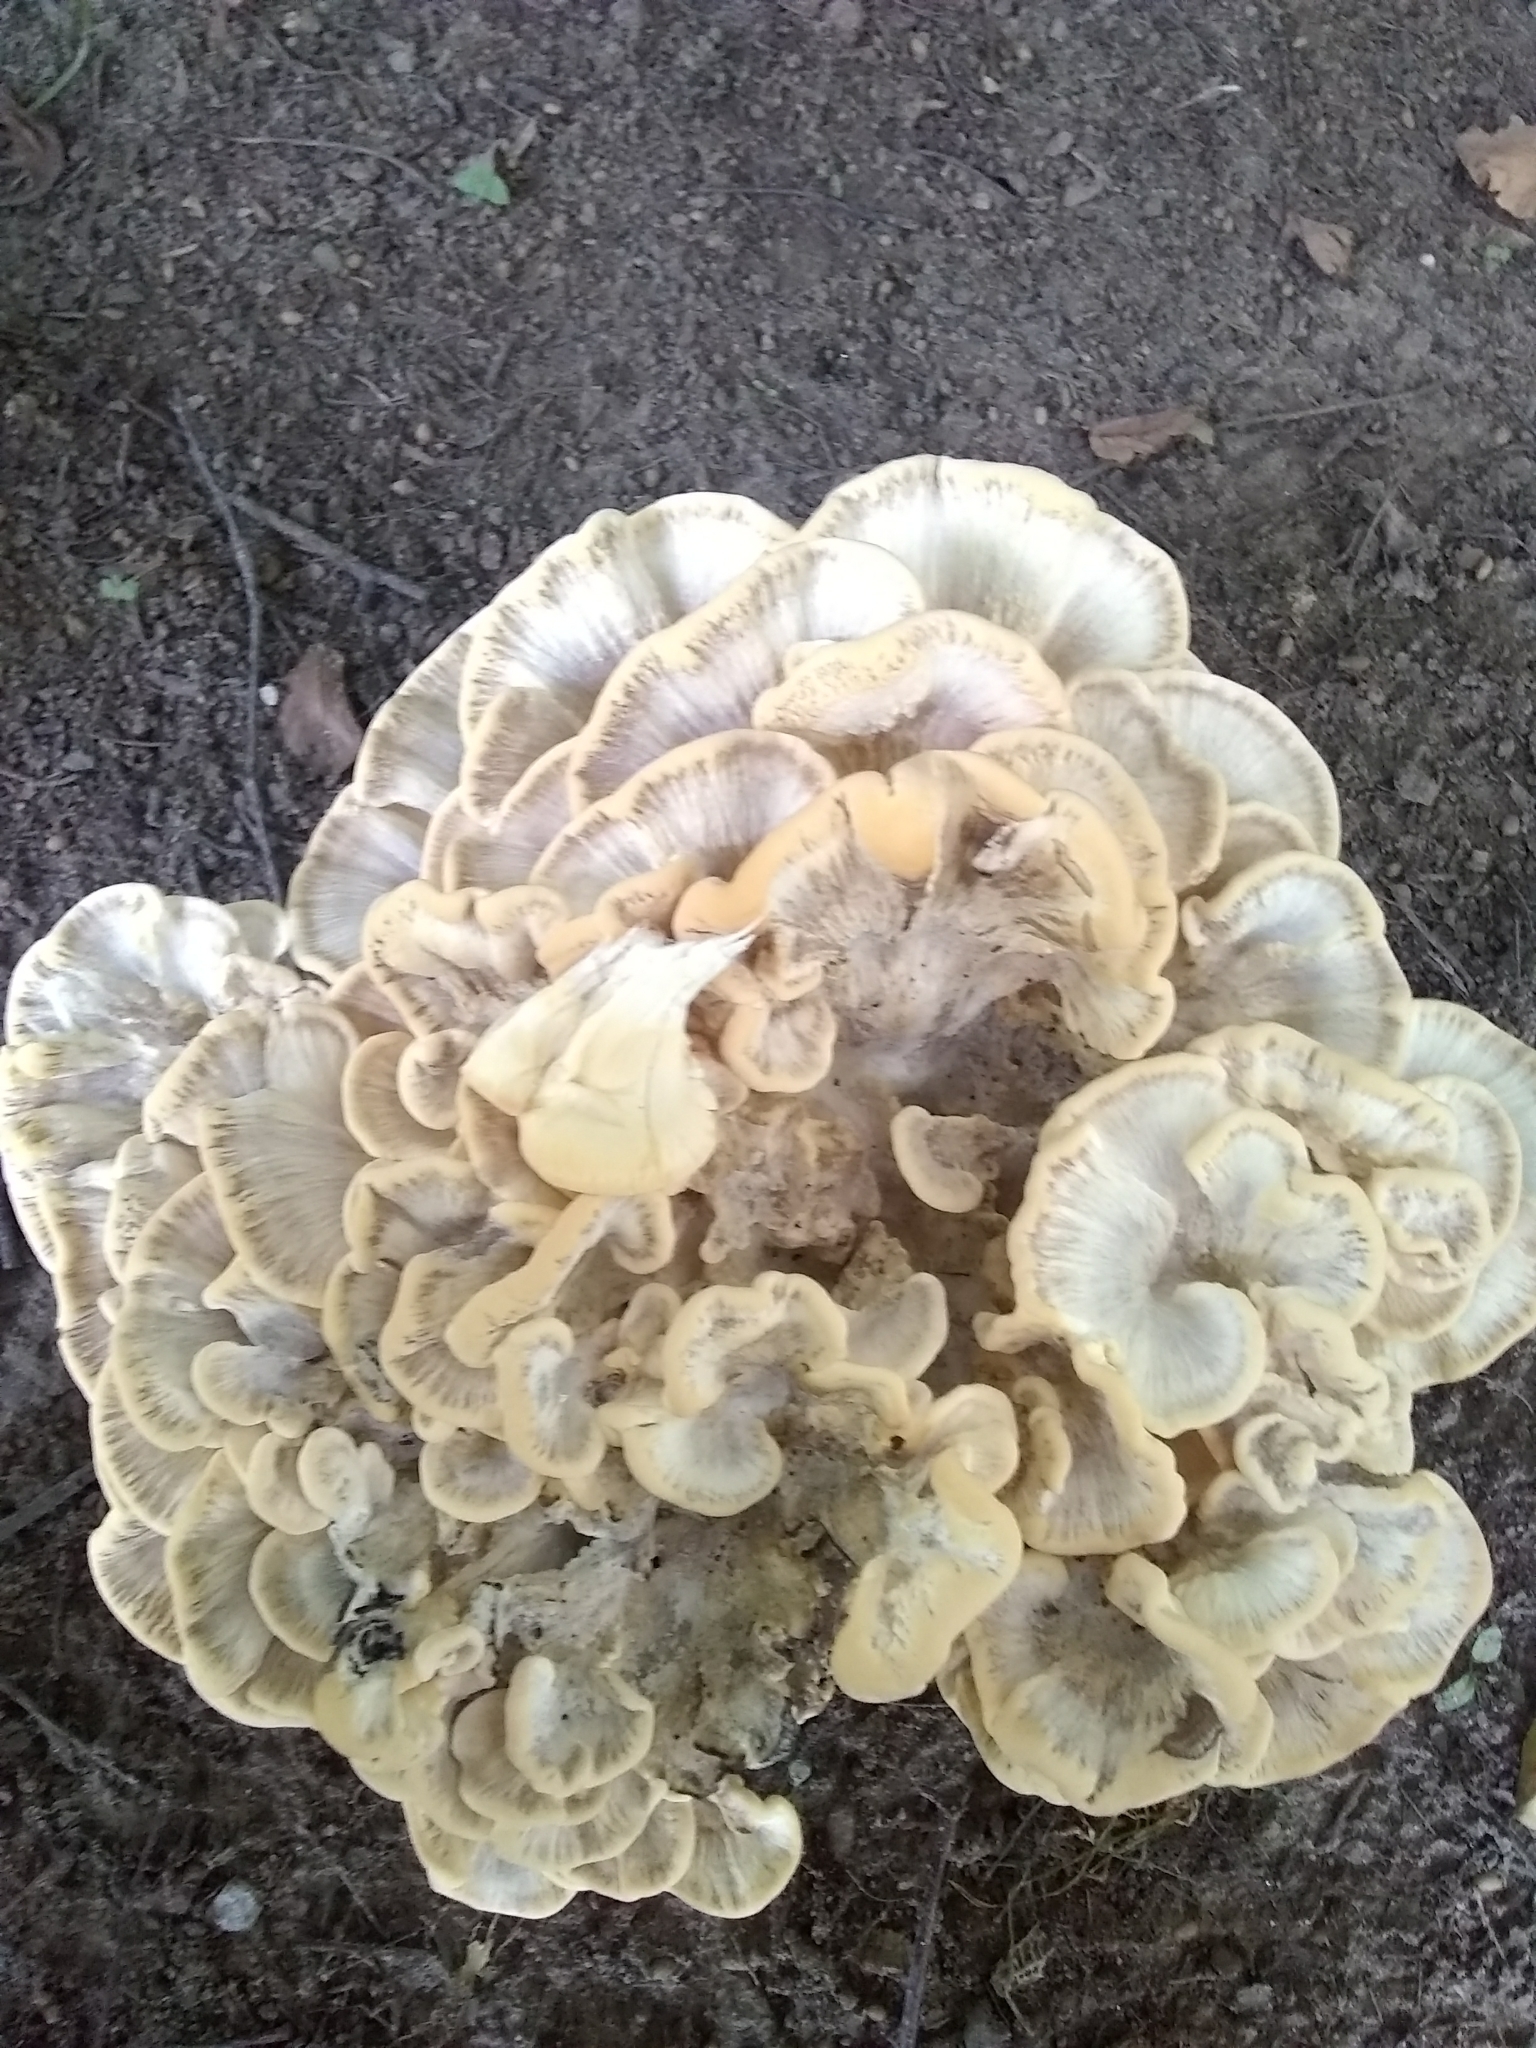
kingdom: Fungi
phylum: Basidiomycota
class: Agaricomycetes
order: Polyporales
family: Meripilaceae
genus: Meripilus
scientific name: Meripilus sumstinei
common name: Black-staining polypore
